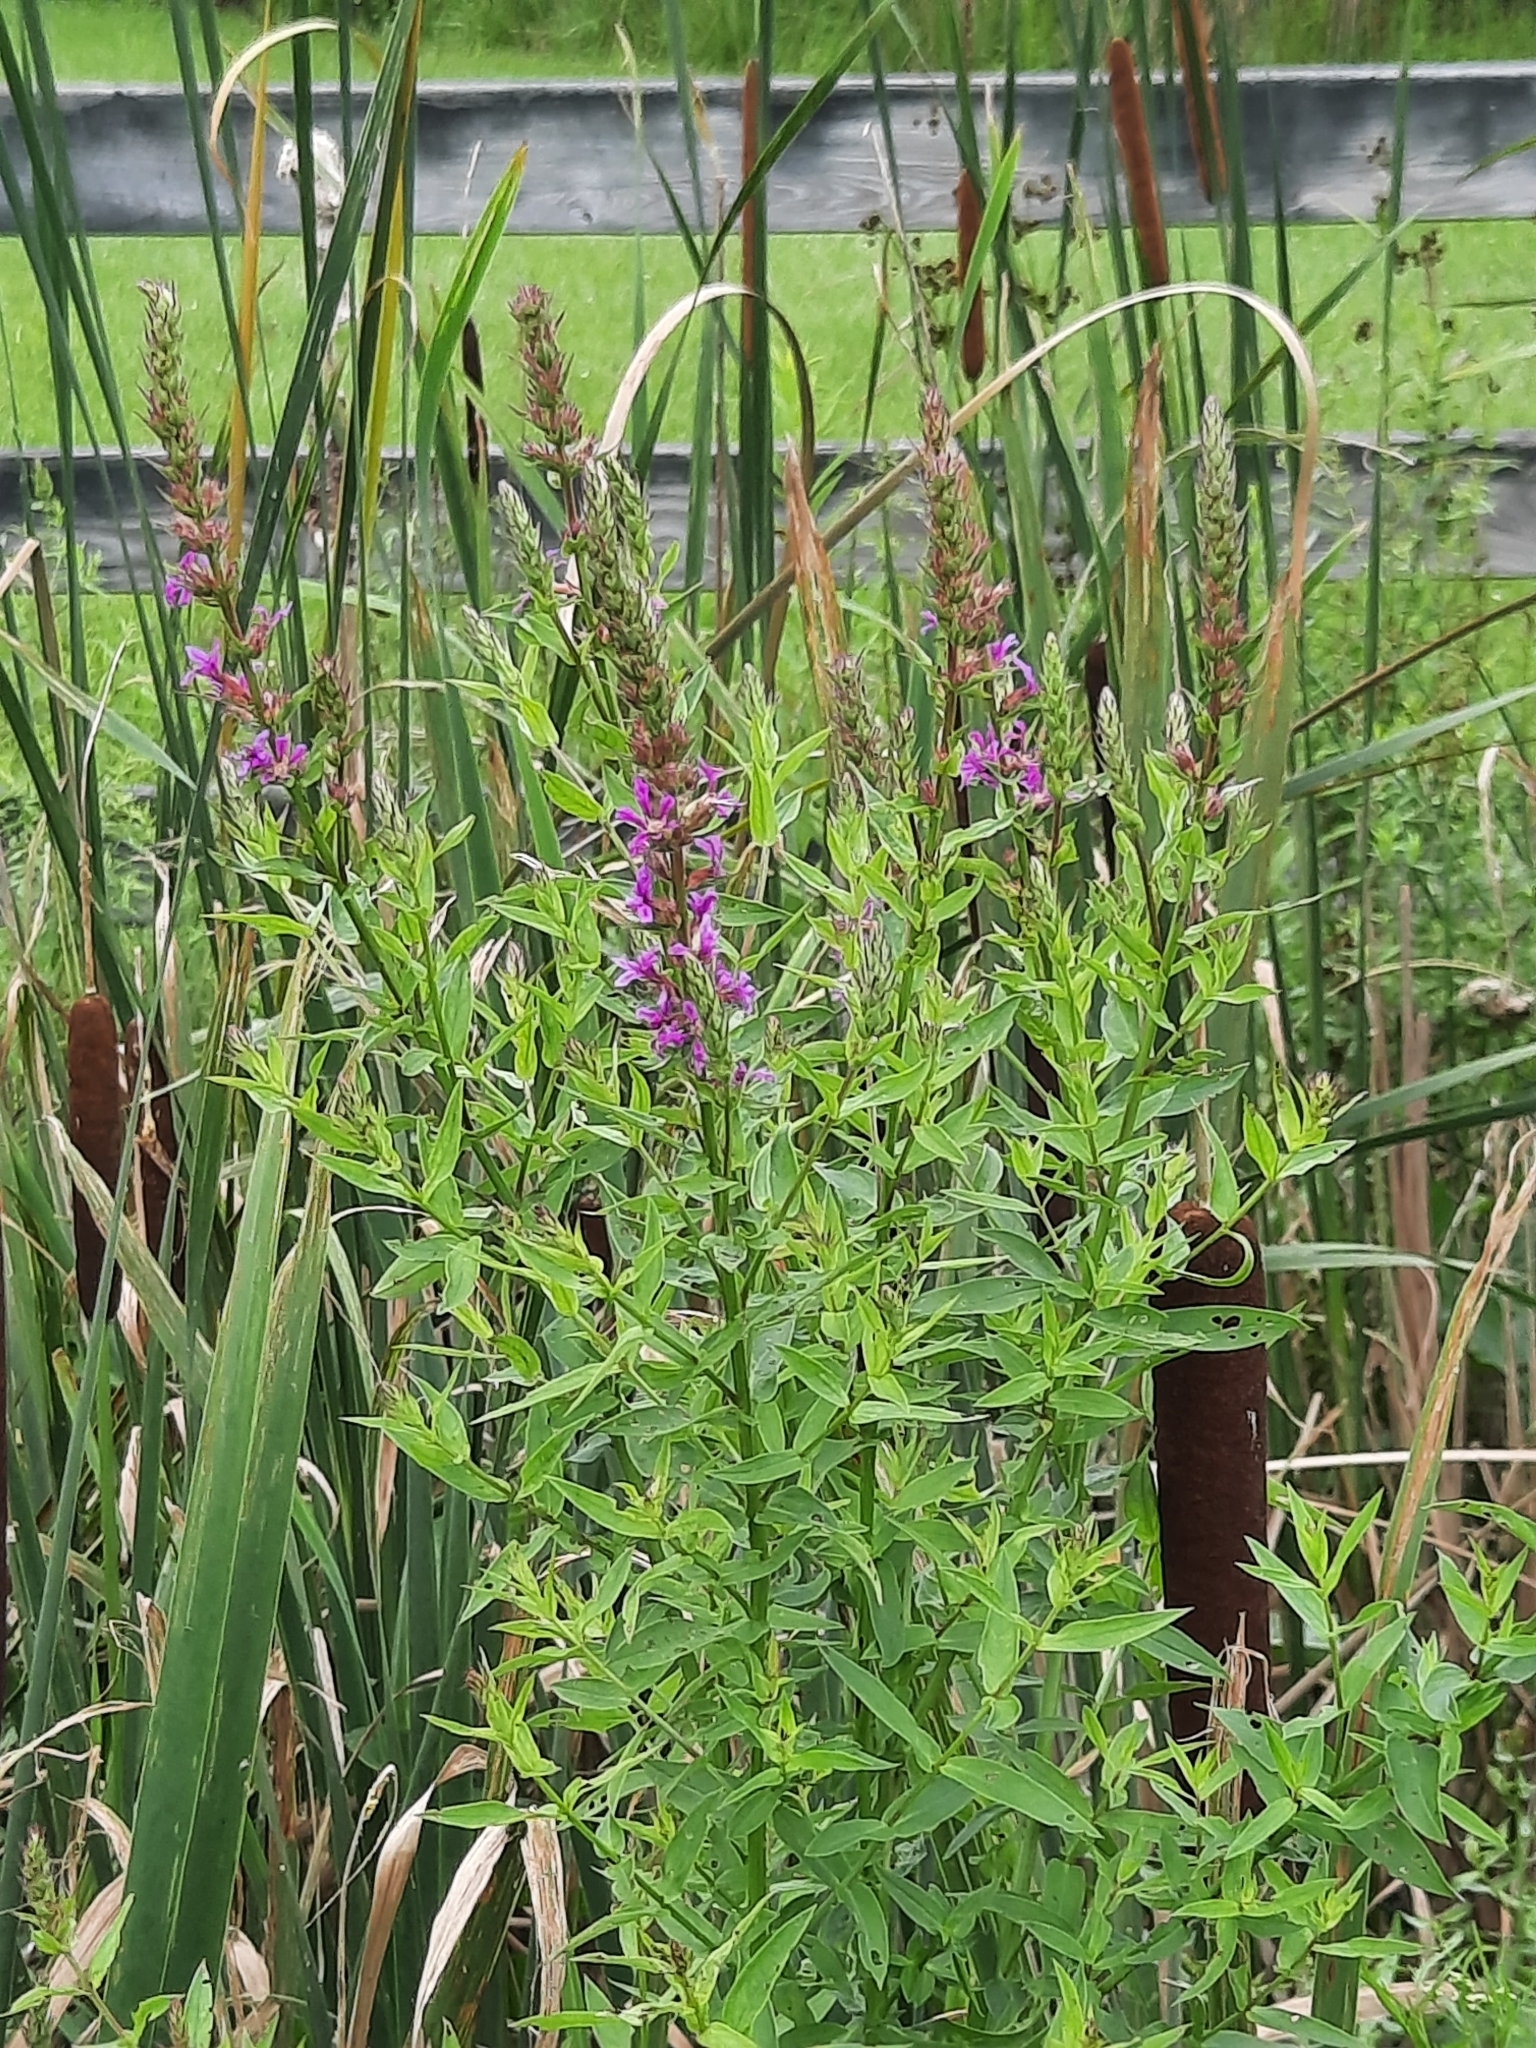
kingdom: Plantae
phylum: Tracheophyta
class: Magnoliopsida
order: Myrtales
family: Lythraceae
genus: Lythrum
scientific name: Lythrum salicaria
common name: Purple loosestrife
